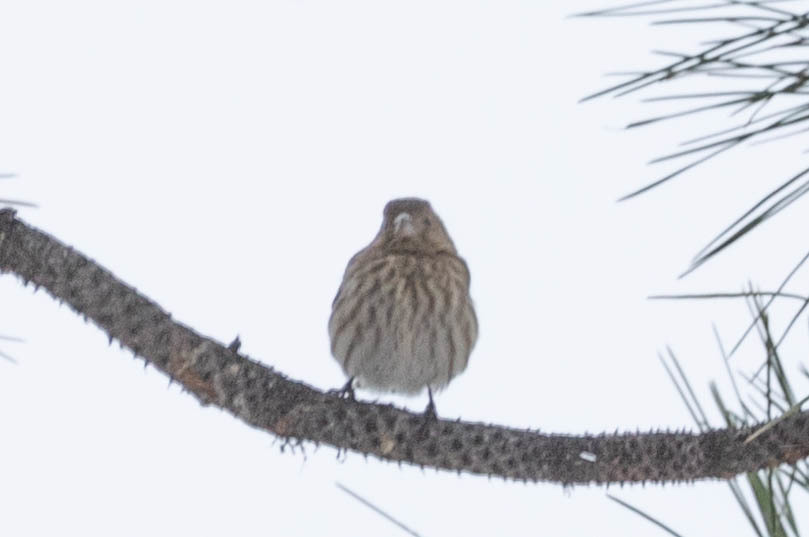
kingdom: Animalia
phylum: Chordata
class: Aves
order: Passeriformes
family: Fringillidae
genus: Haemorhous
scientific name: Haemorhous mexicanus
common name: House finch
